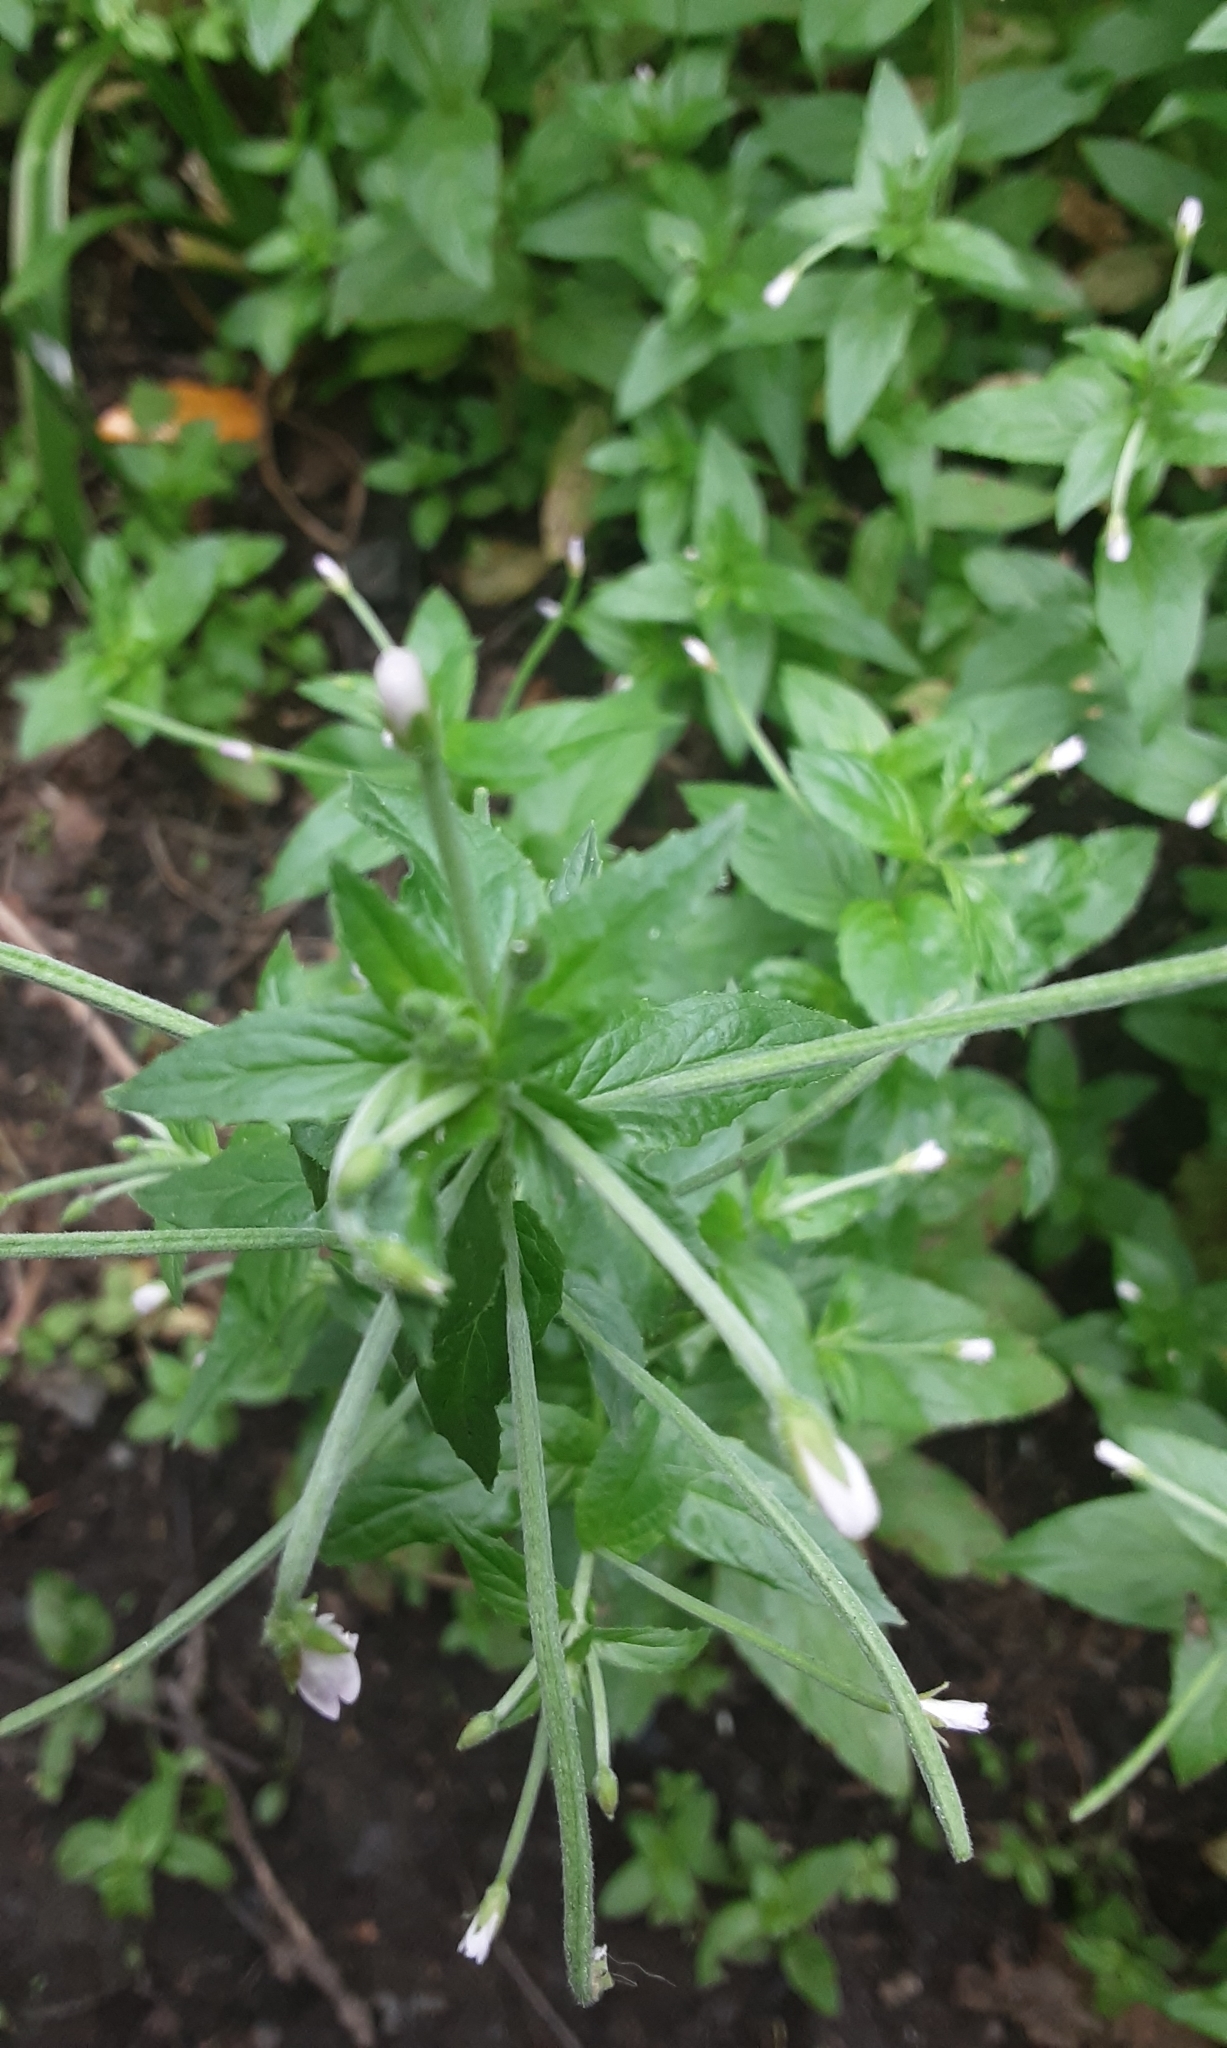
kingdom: Plantae
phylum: Tracheophyta
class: Magnoliopsida
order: Myrtales
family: Onagraceae
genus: Epilobium
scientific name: Epilobium montanum
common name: Broad-leaved willowherb
